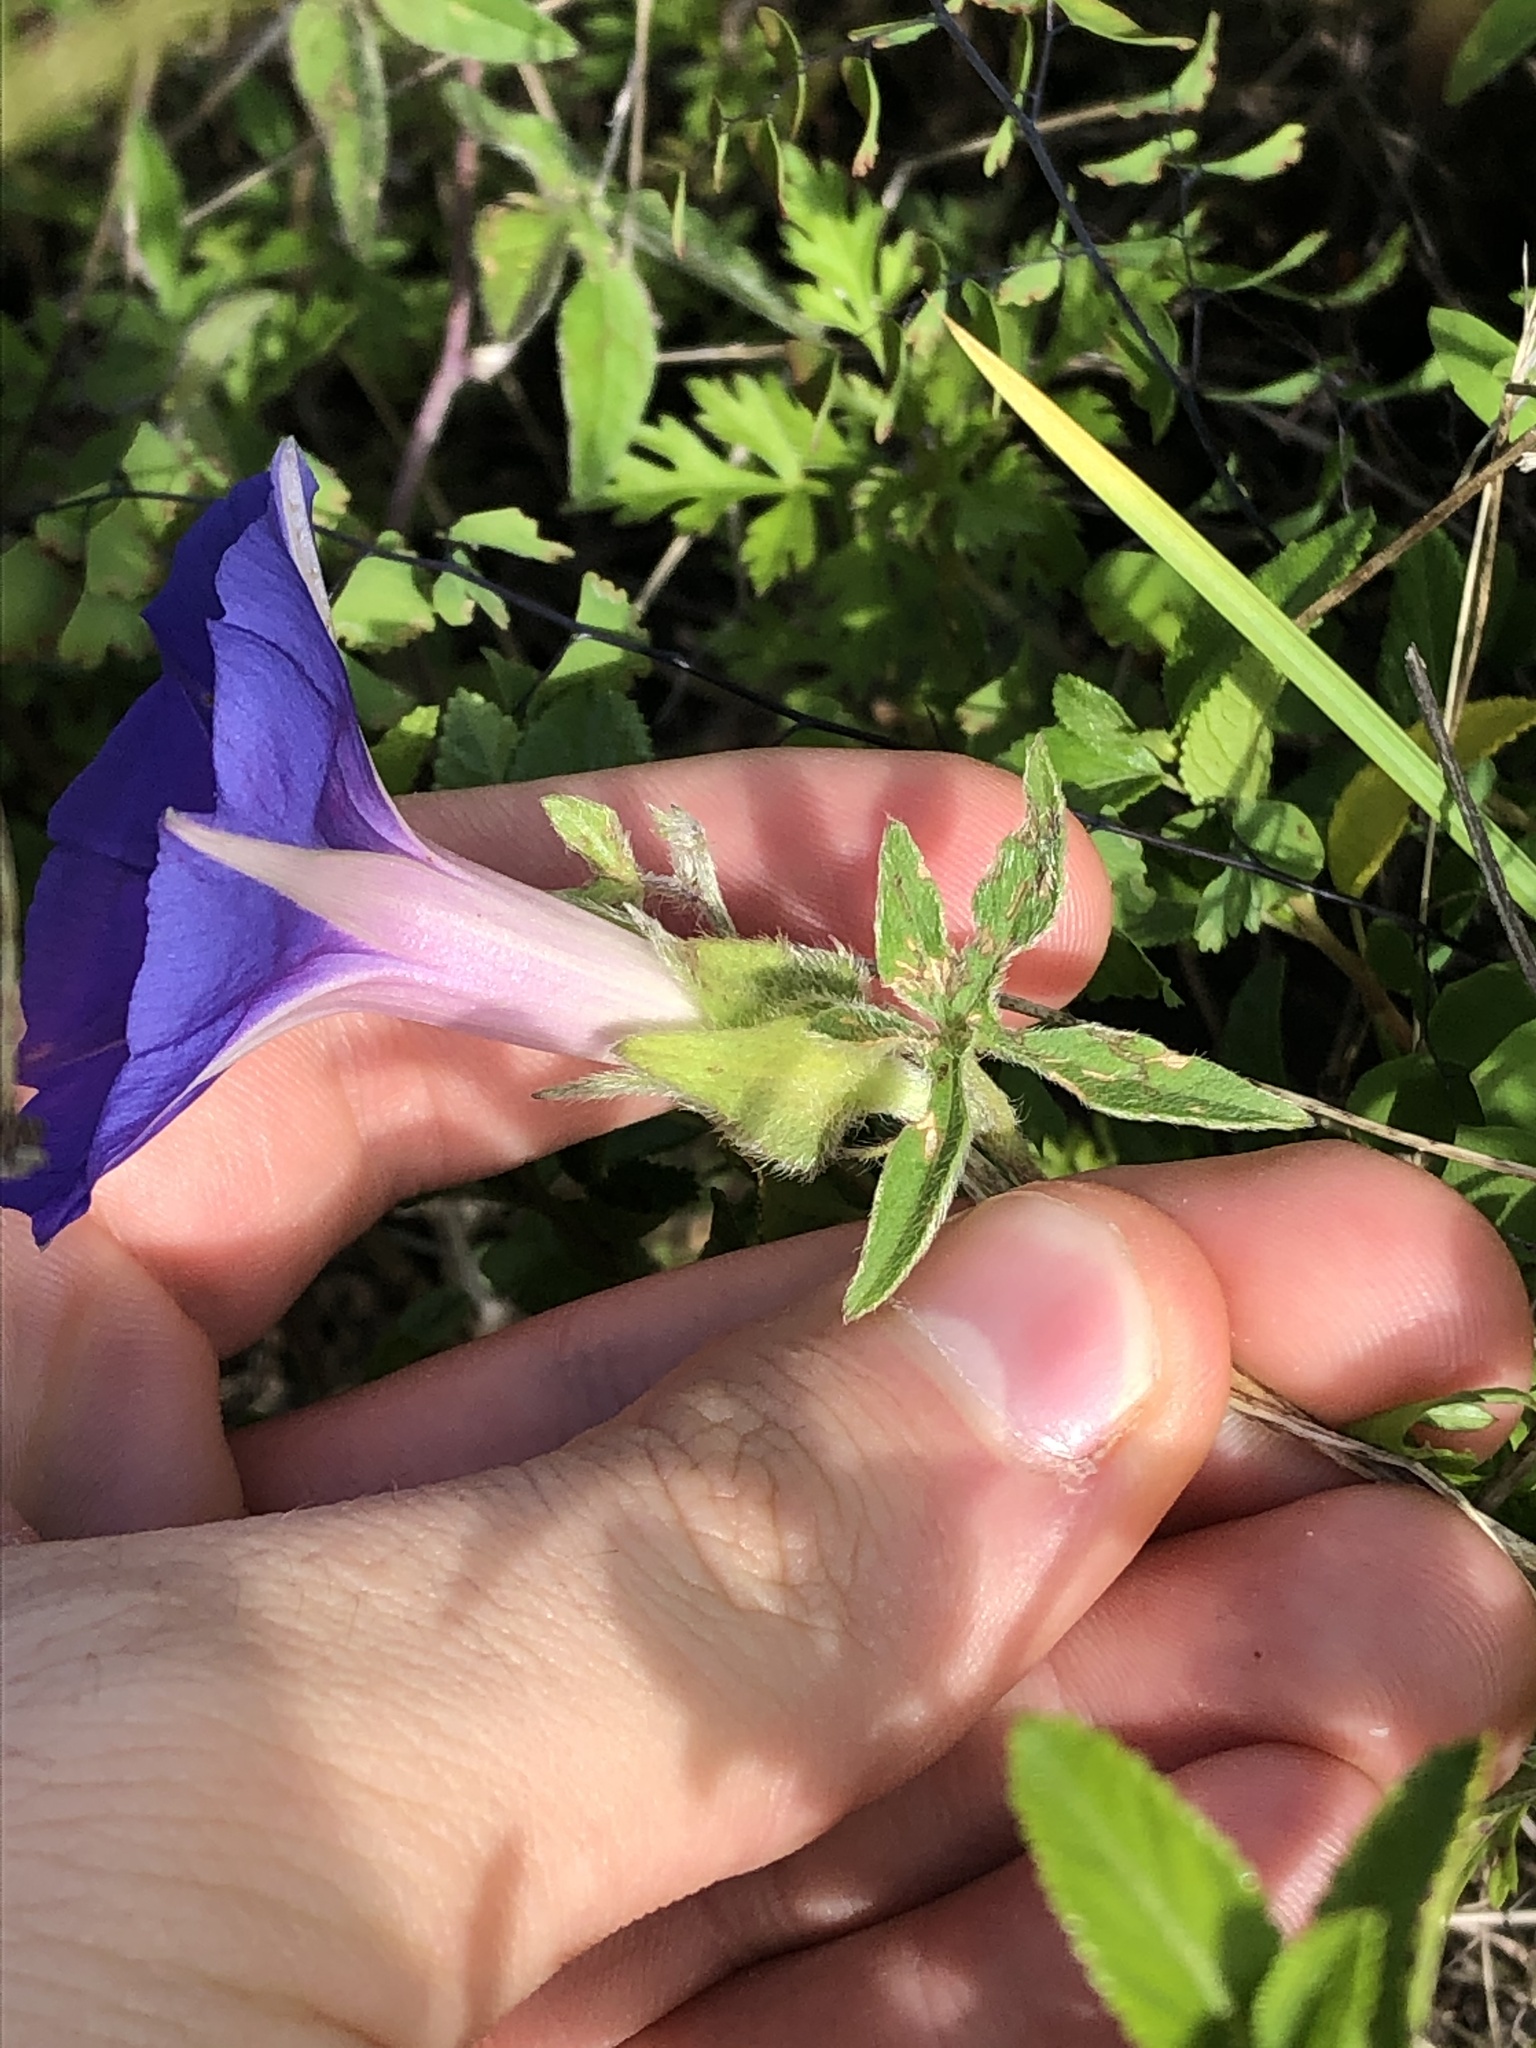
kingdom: Plantae
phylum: Tracheophyta
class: Magnoliopsida
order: Solanales
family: Convolvulaceae
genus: Ipomoea
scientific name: Ipomoea pubescens
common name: Silky morning-glory
